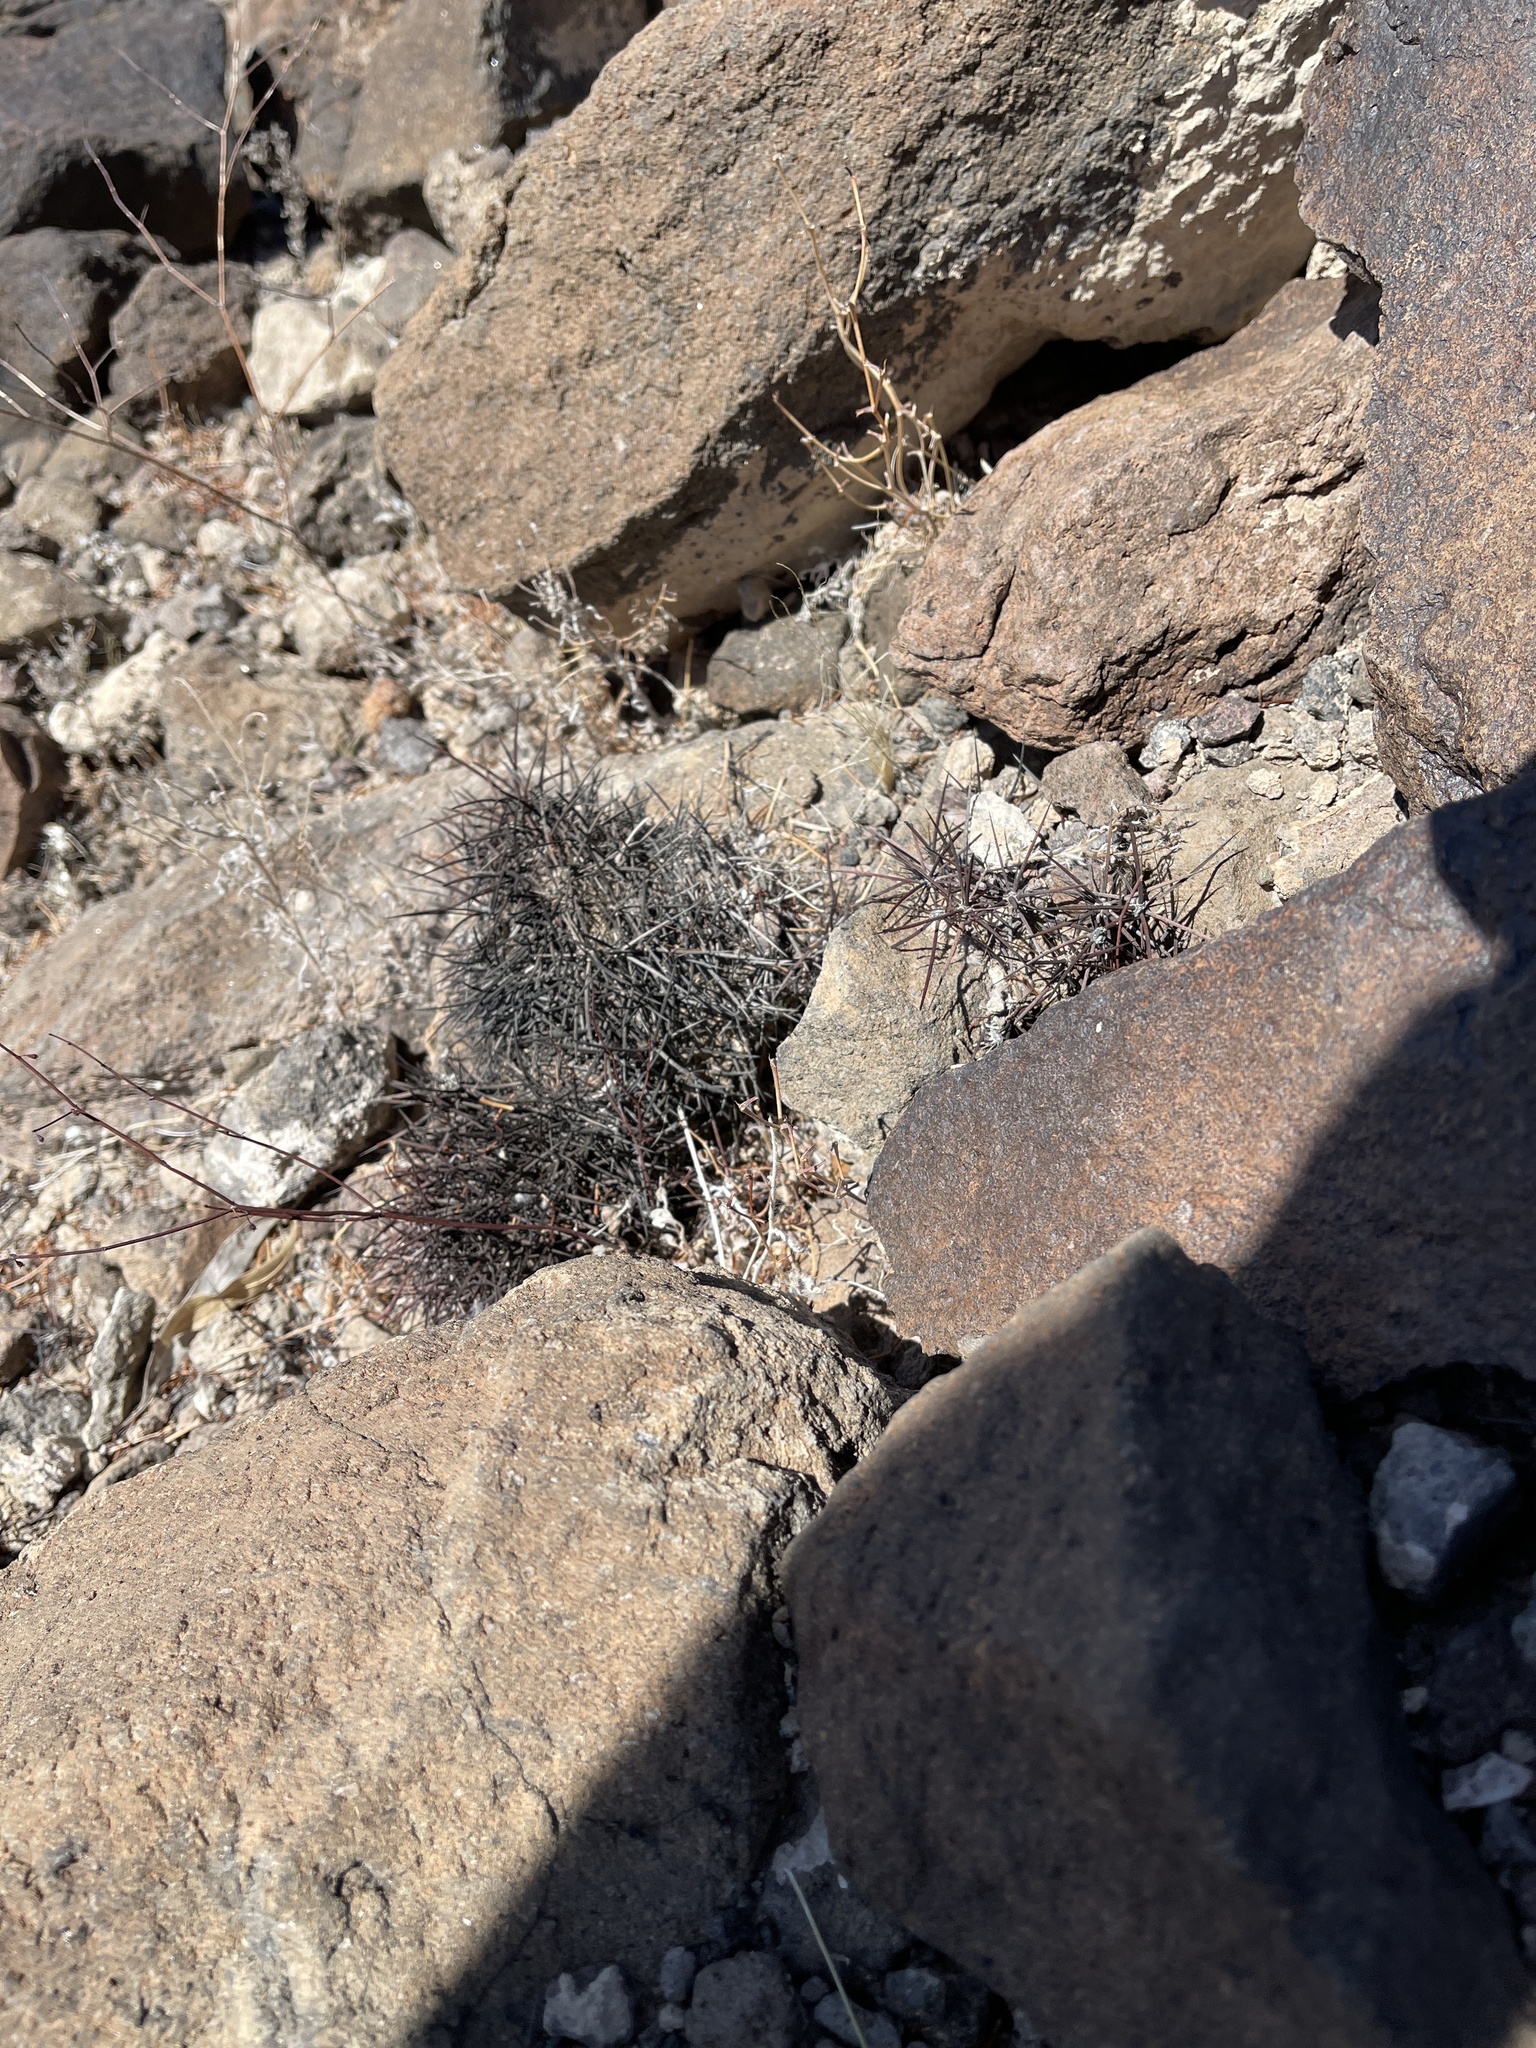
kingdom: Plantae
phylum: Tracheophyta
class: Magnoliopsida
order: Caryophyllales
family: Cactaceae
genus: Echinocereus
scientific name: Echinocereus engelmannii
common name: Engelmann's hedgehog cactus
